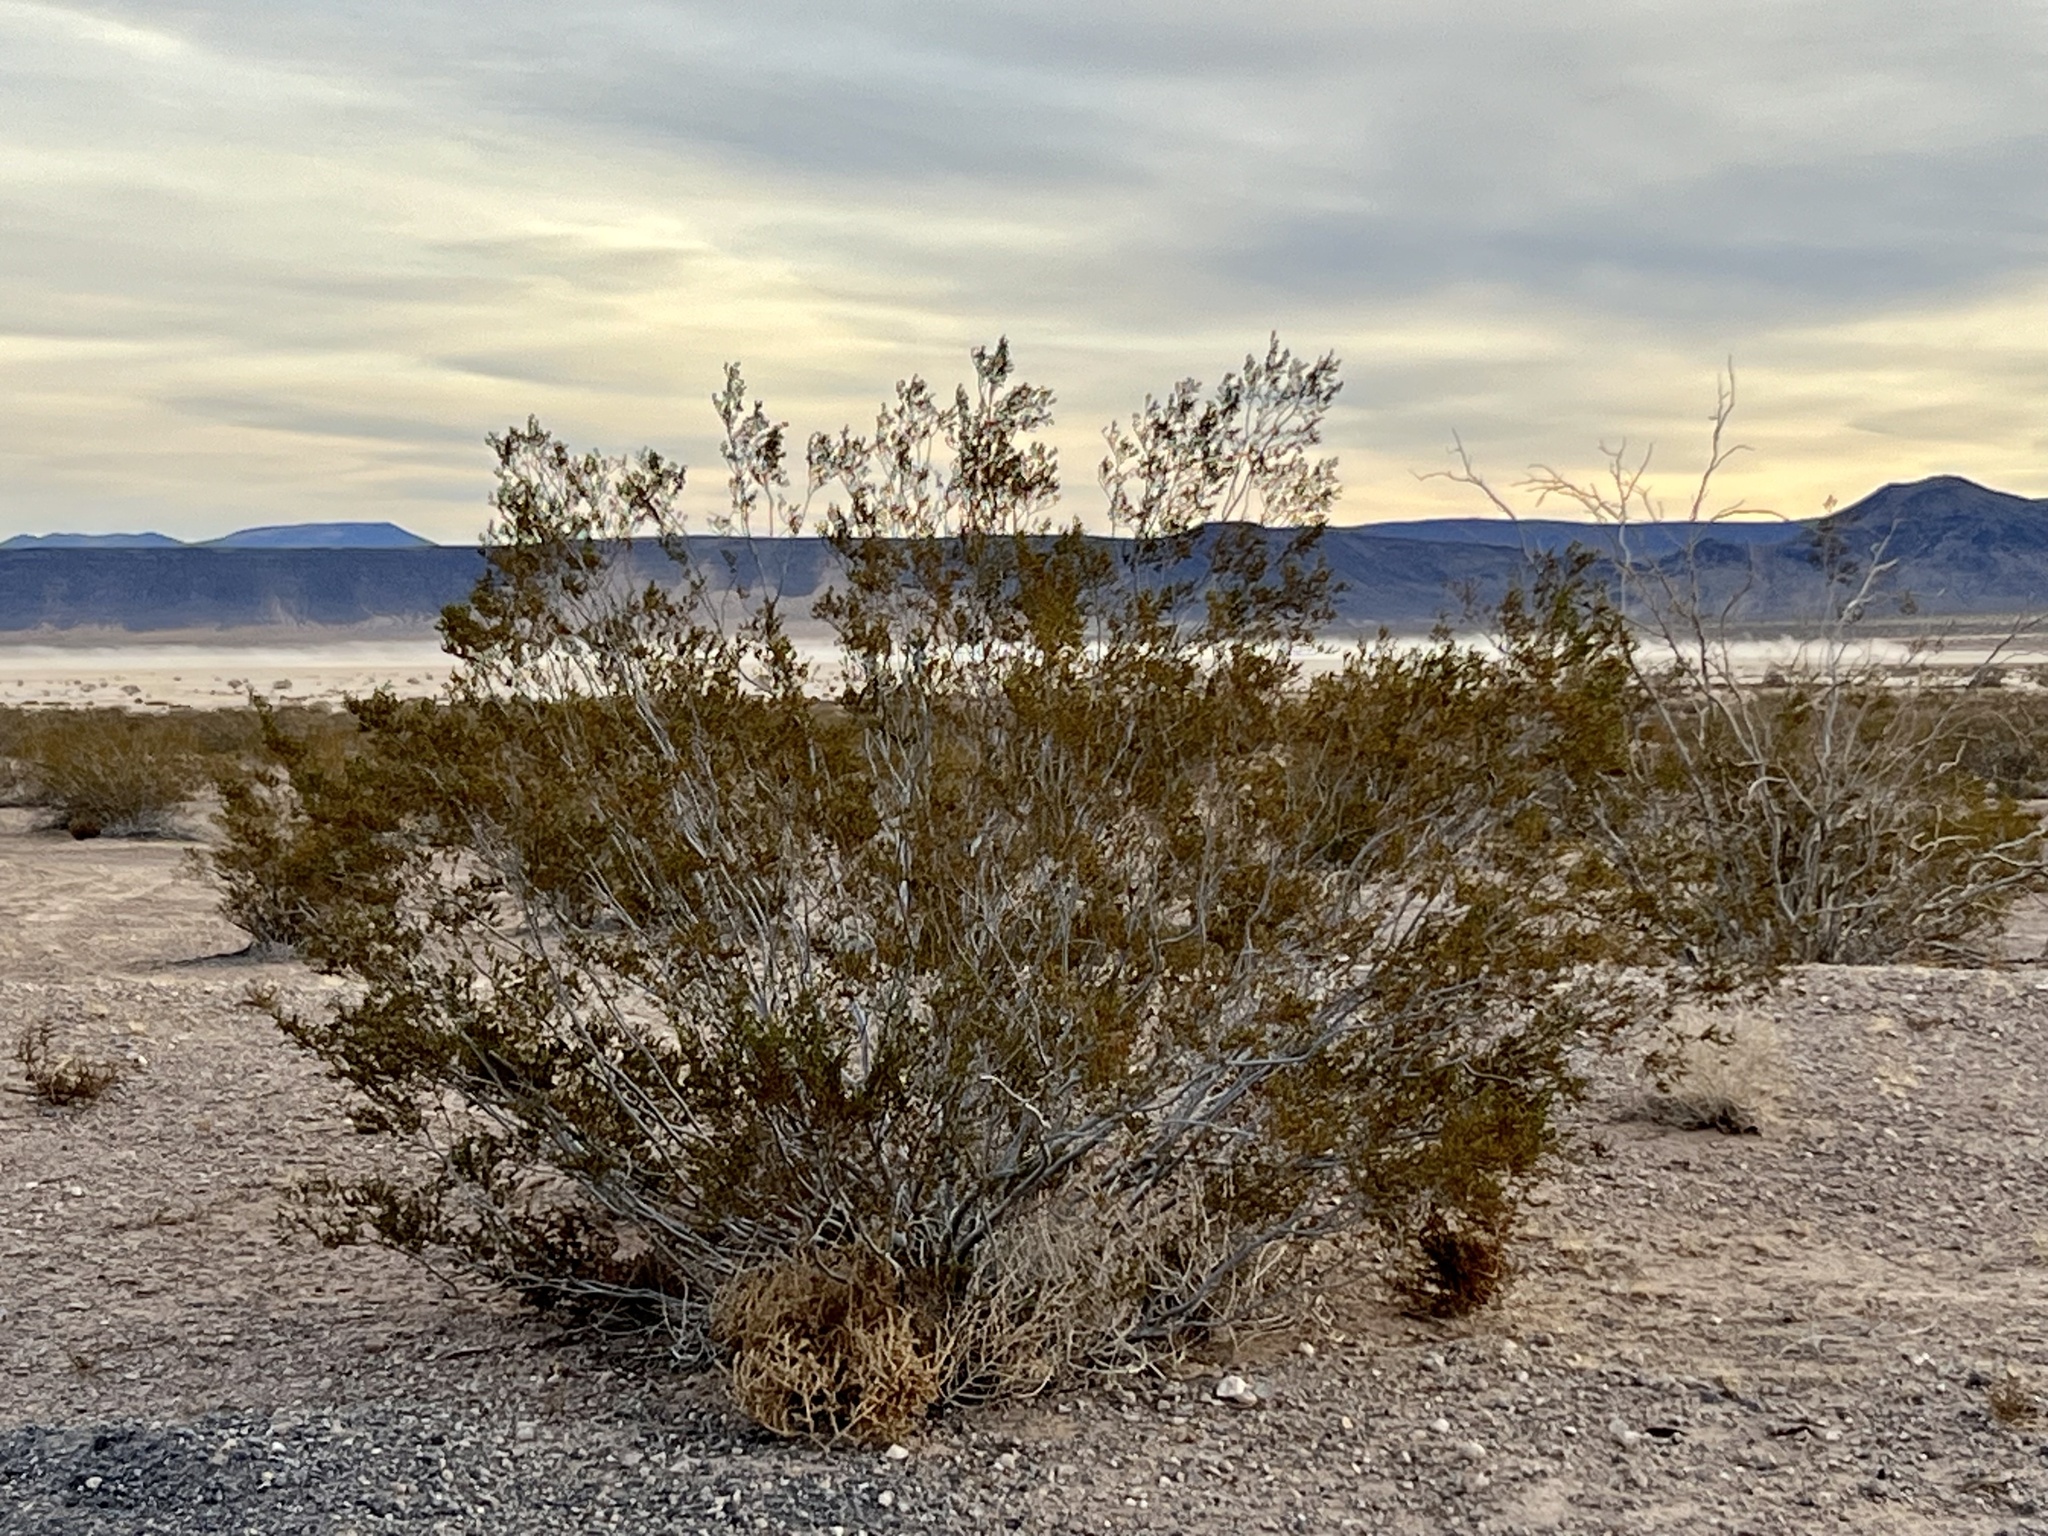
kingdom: Plantae
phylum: Tracheophyta
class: Magnoliopsida
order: Zygophyllales
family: Zygophyllaceae
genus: Larrea
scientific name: Larrea tridentata
